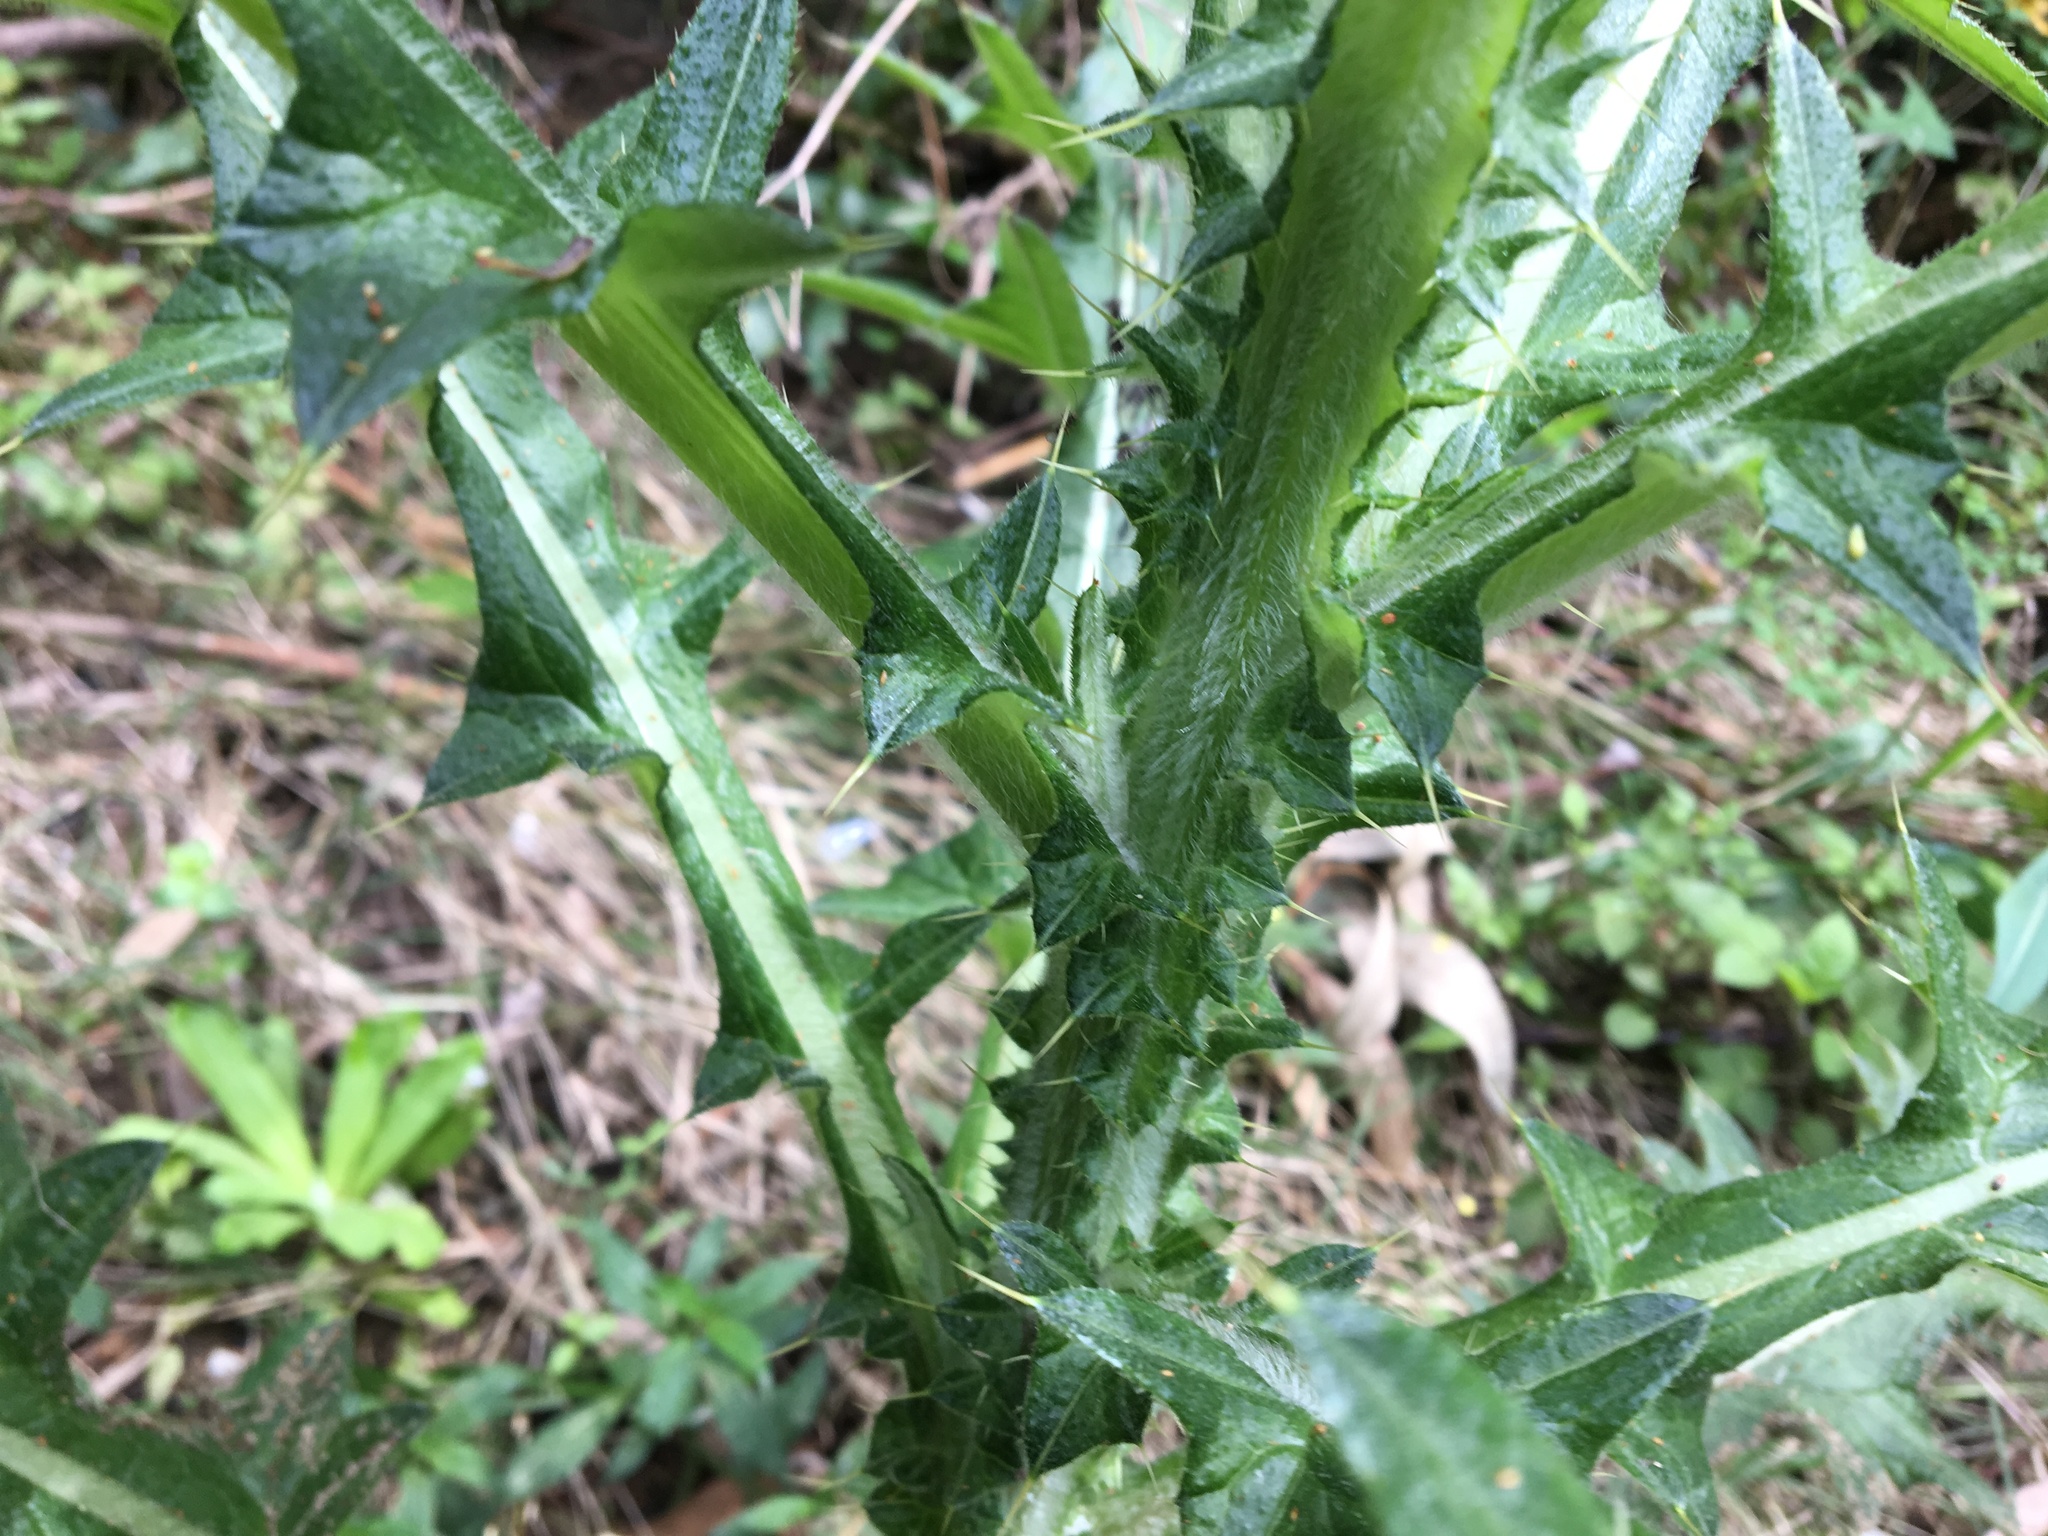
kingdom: Plantae
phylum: Tracheophyta
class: Magnoliopsida
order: Asterales
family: Asteraceae
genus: Cirsium
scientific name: Cirsium vulgare
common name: Bull thistle
